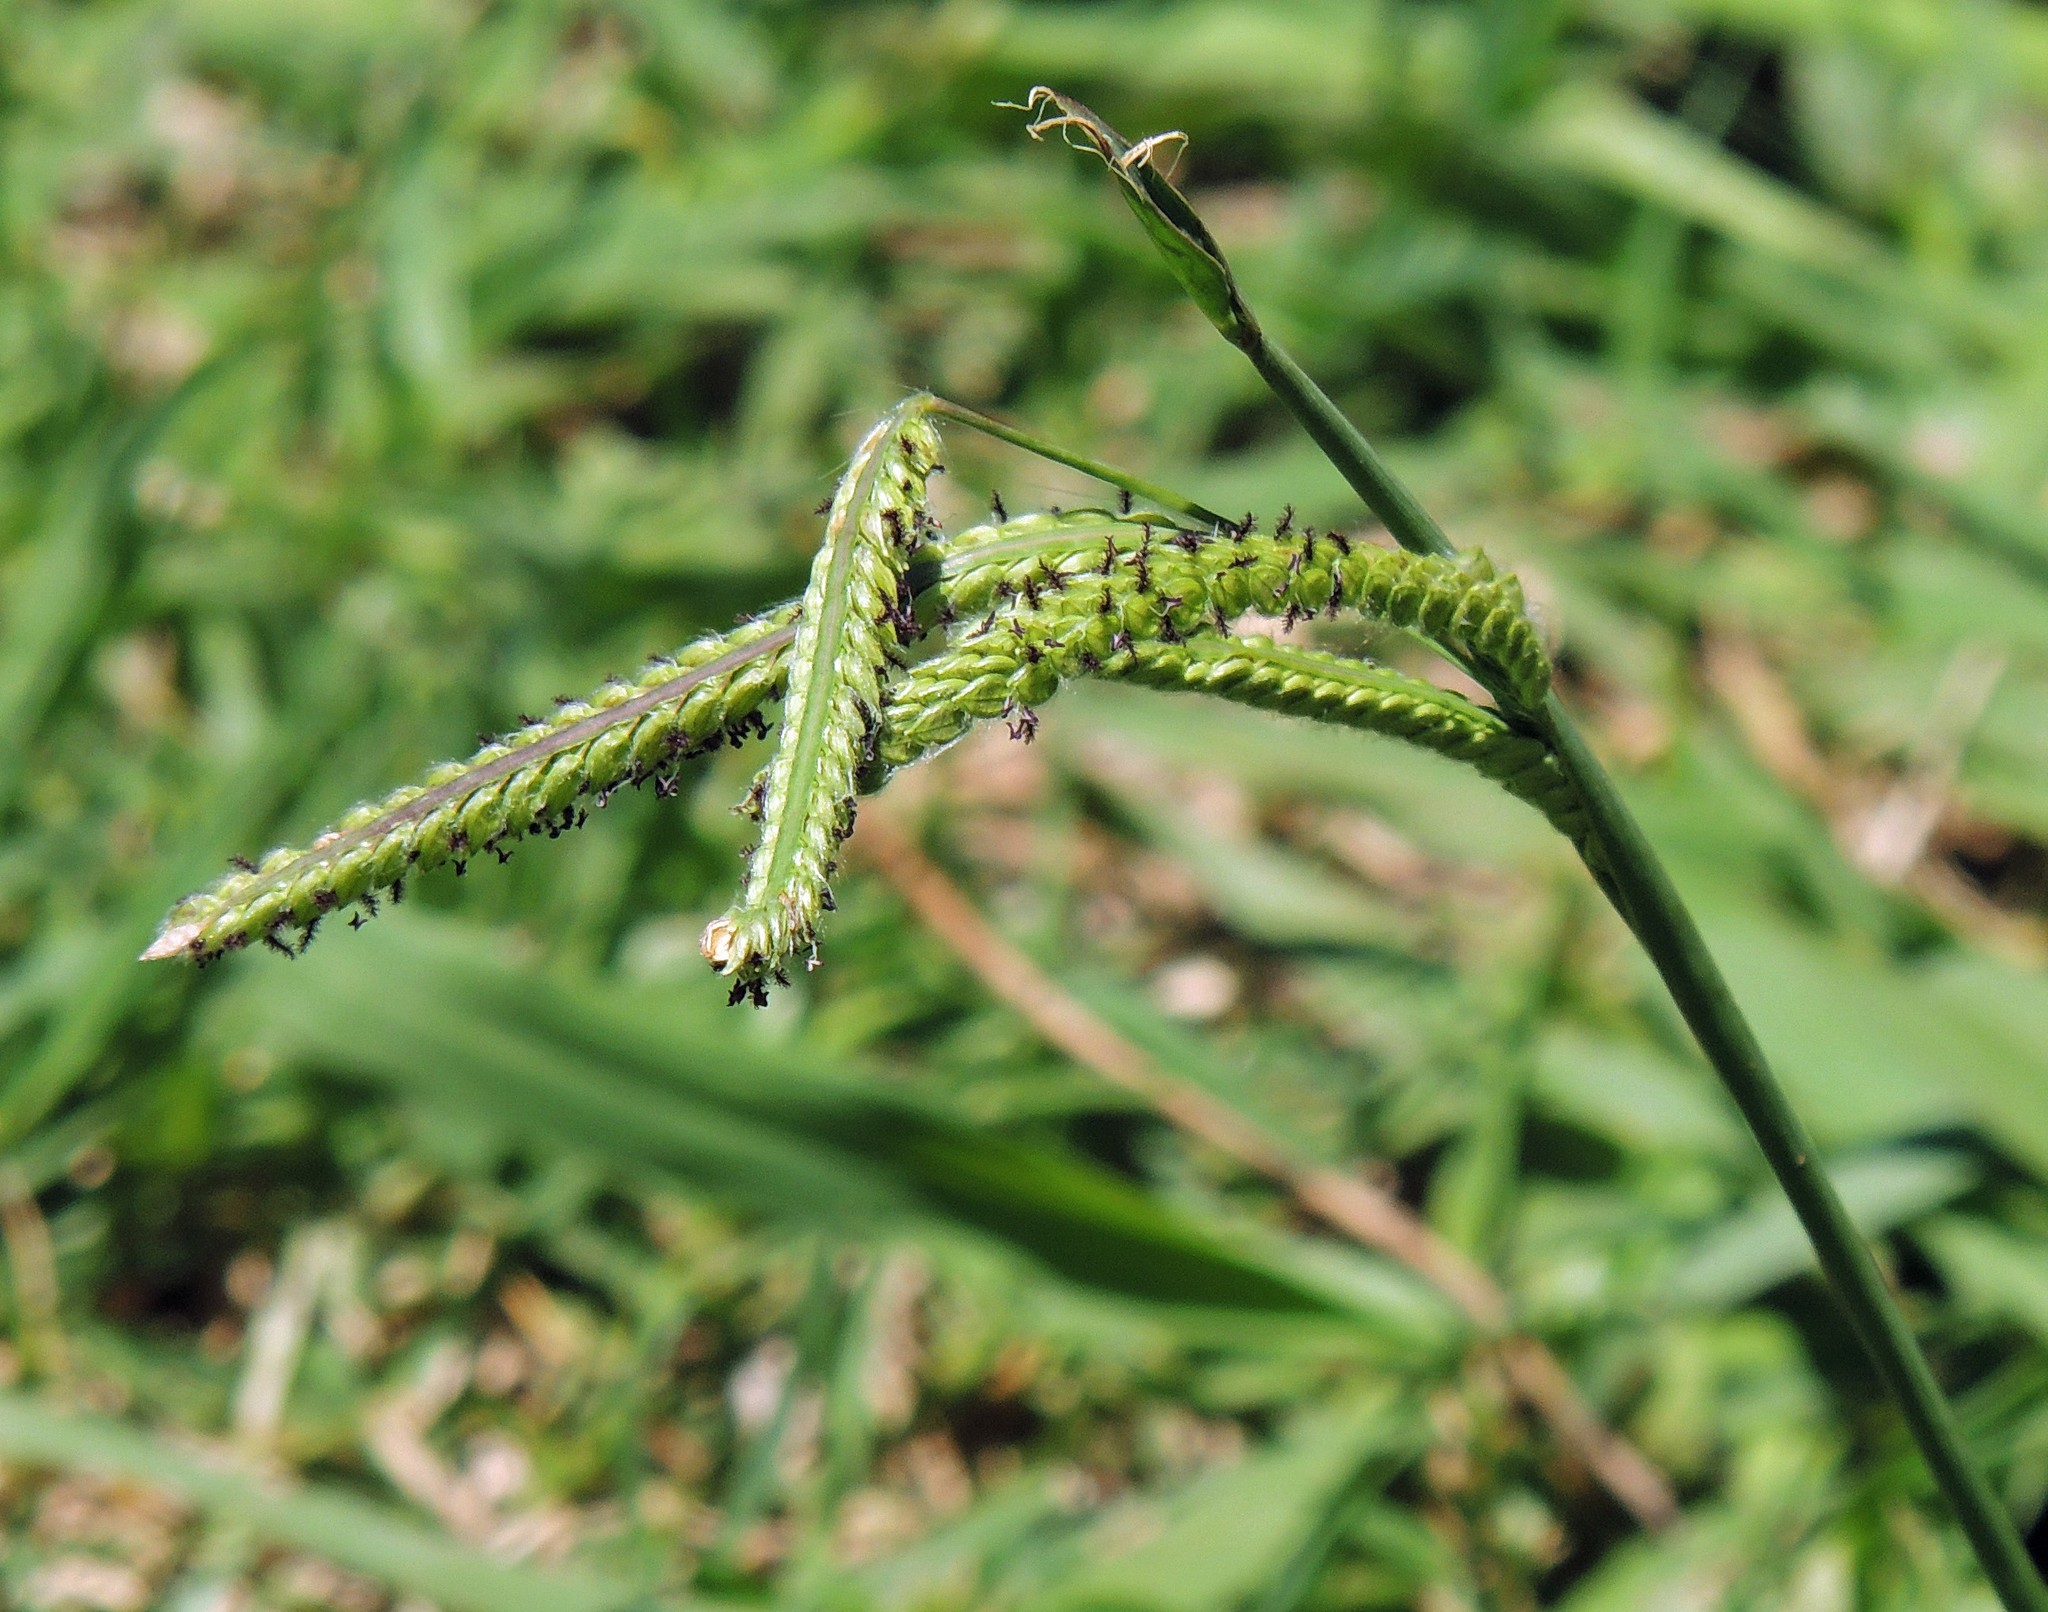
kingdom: Plantae
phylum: Tracheophyta
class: Liliopsida
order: Poales
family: Poaceae
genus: Paspalum
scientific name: Paspalum dilatatum
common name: Dallisgrass
